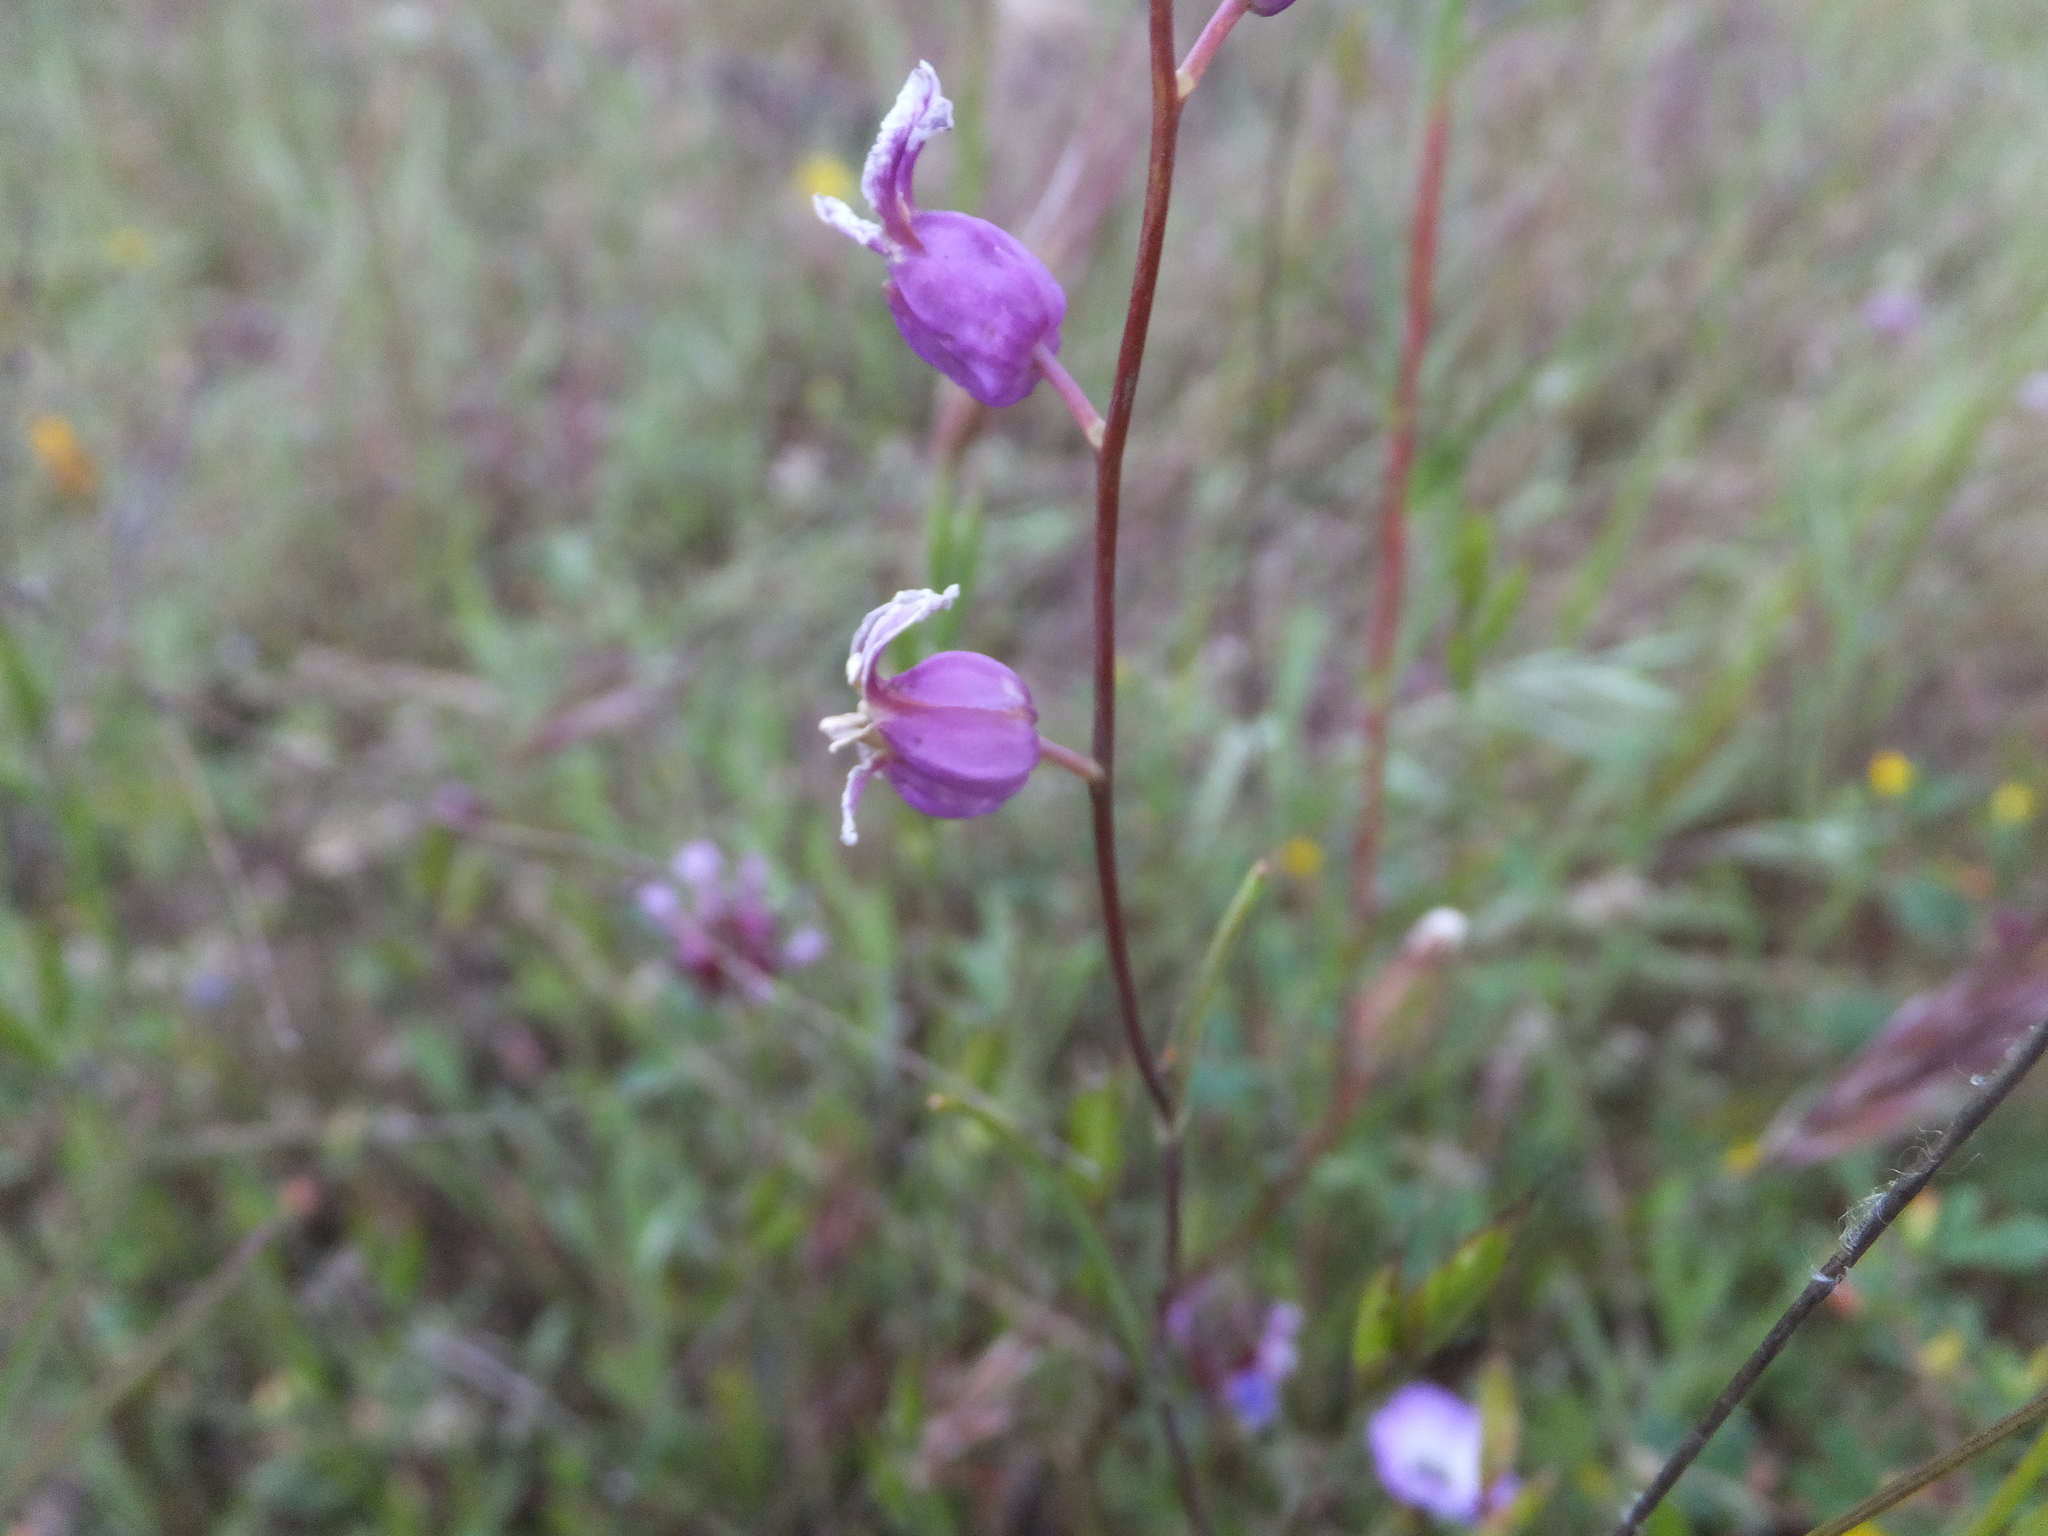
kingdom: Plantae
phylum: Tracheophyta
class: Magnoliopsida
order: Brassicales
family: Brassicaceae
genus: Streptanthus
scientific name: Streptanthus glandulosus
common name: Jewel-flower
